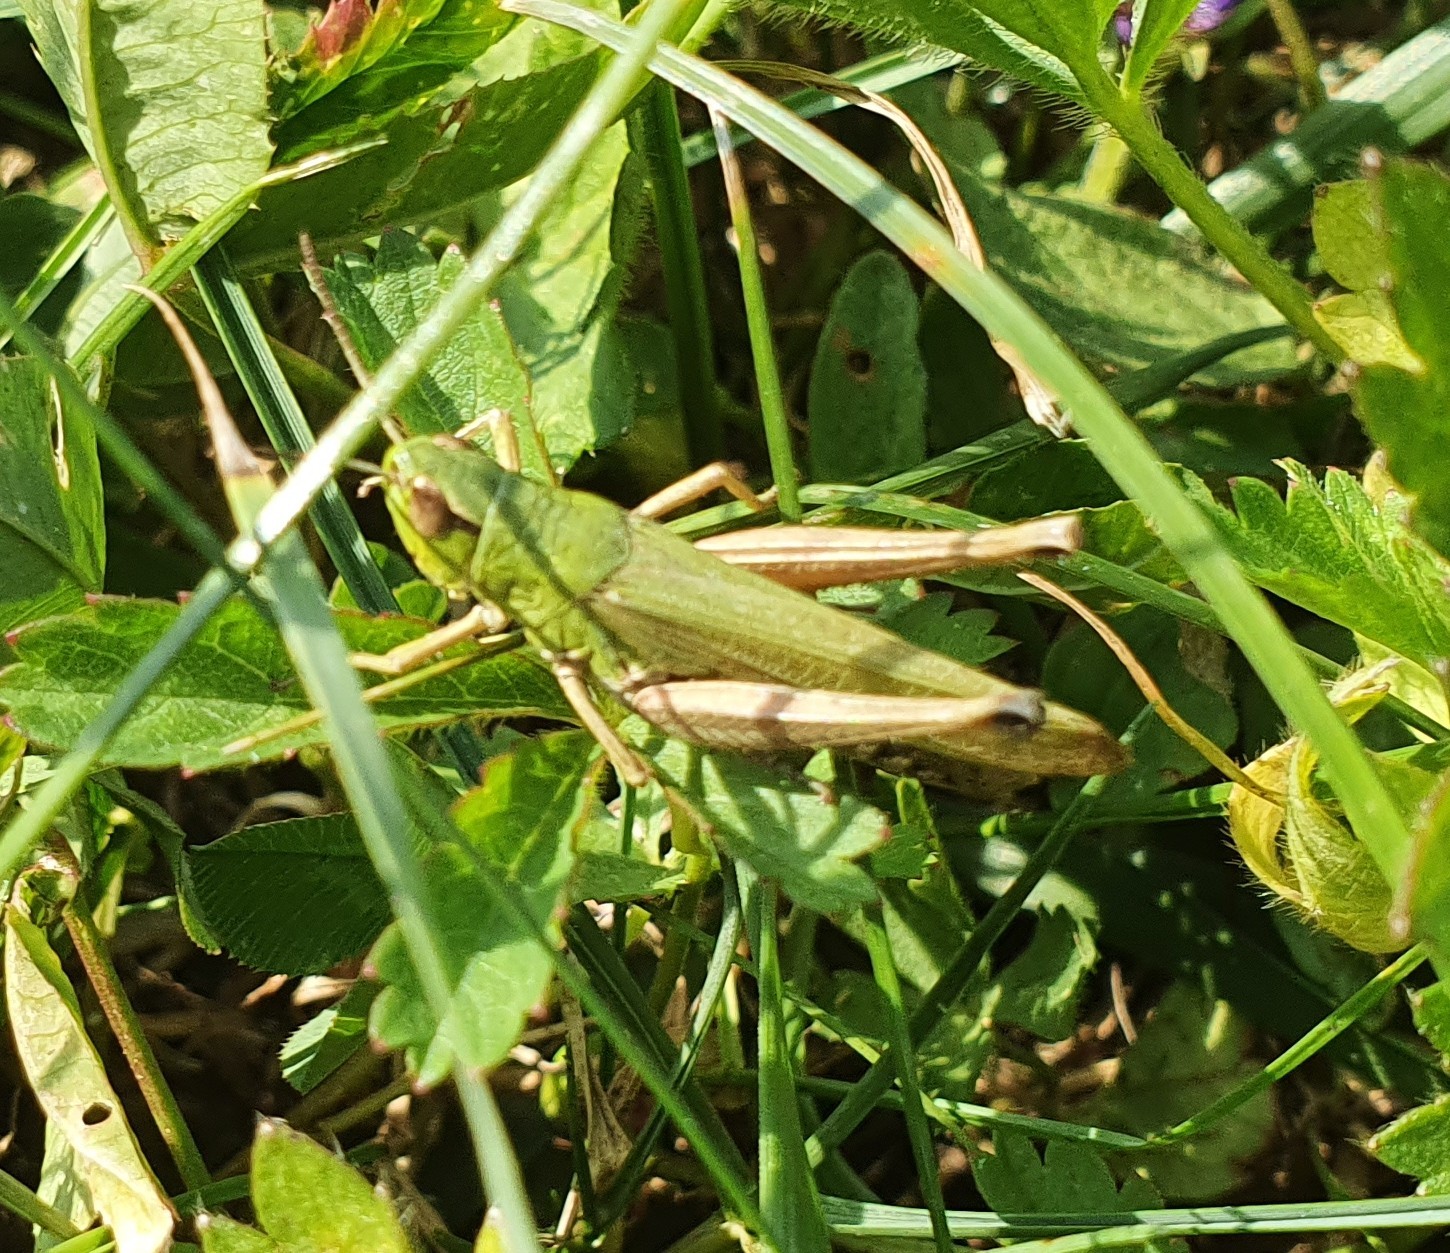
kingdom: Animalia
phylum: Arthropoda
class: Insecta
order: Orthoptera
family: Acrididae
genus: Pseudochorthippus
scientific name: Pseudochorthippus parallelus
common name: Meadow grasshopper
